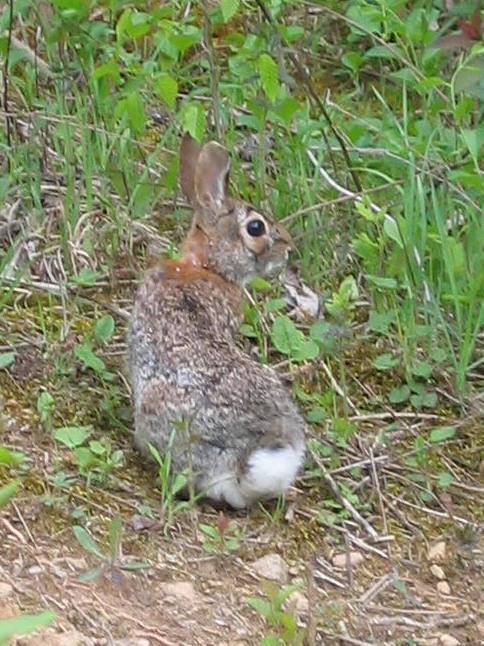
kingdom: Animalia
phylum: Chordata
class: Mammalia
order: Lagomorpha
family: Leporidae
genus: Sylvilagus
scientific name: Sylvilagus floridanus
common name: Eastern cottontail
